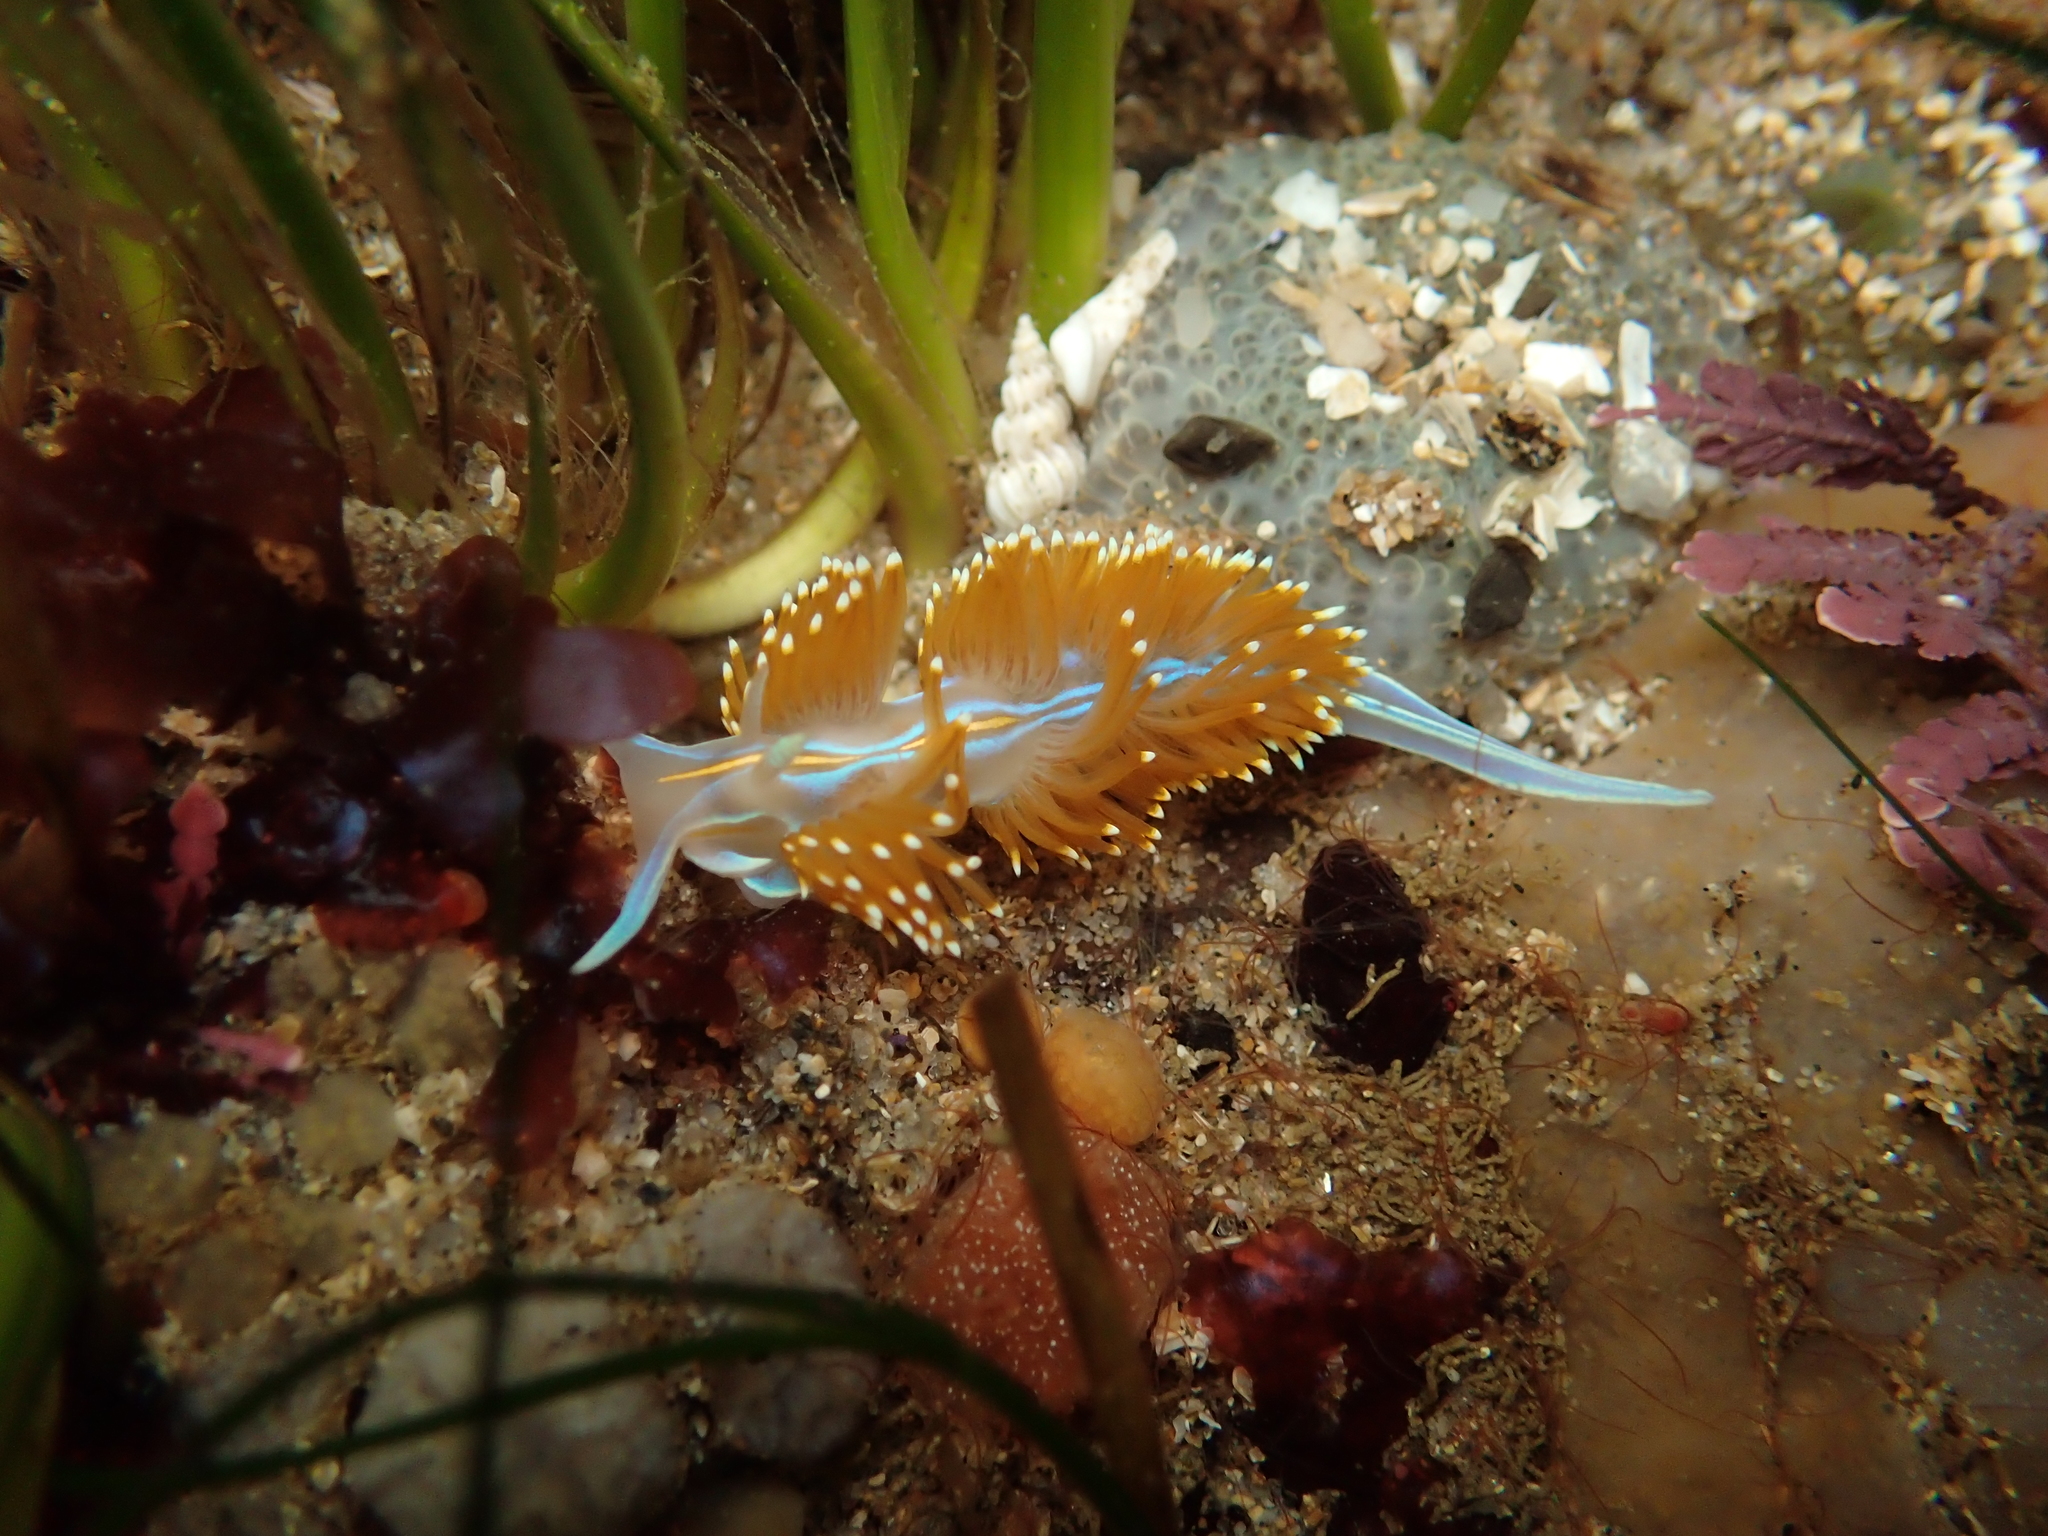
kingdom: Animalia
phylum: Mollusca
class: Gastropoda
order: Nudibranchia
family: Myrrhinidae
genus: Hermissenda
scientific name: Hermissenda opalescens
